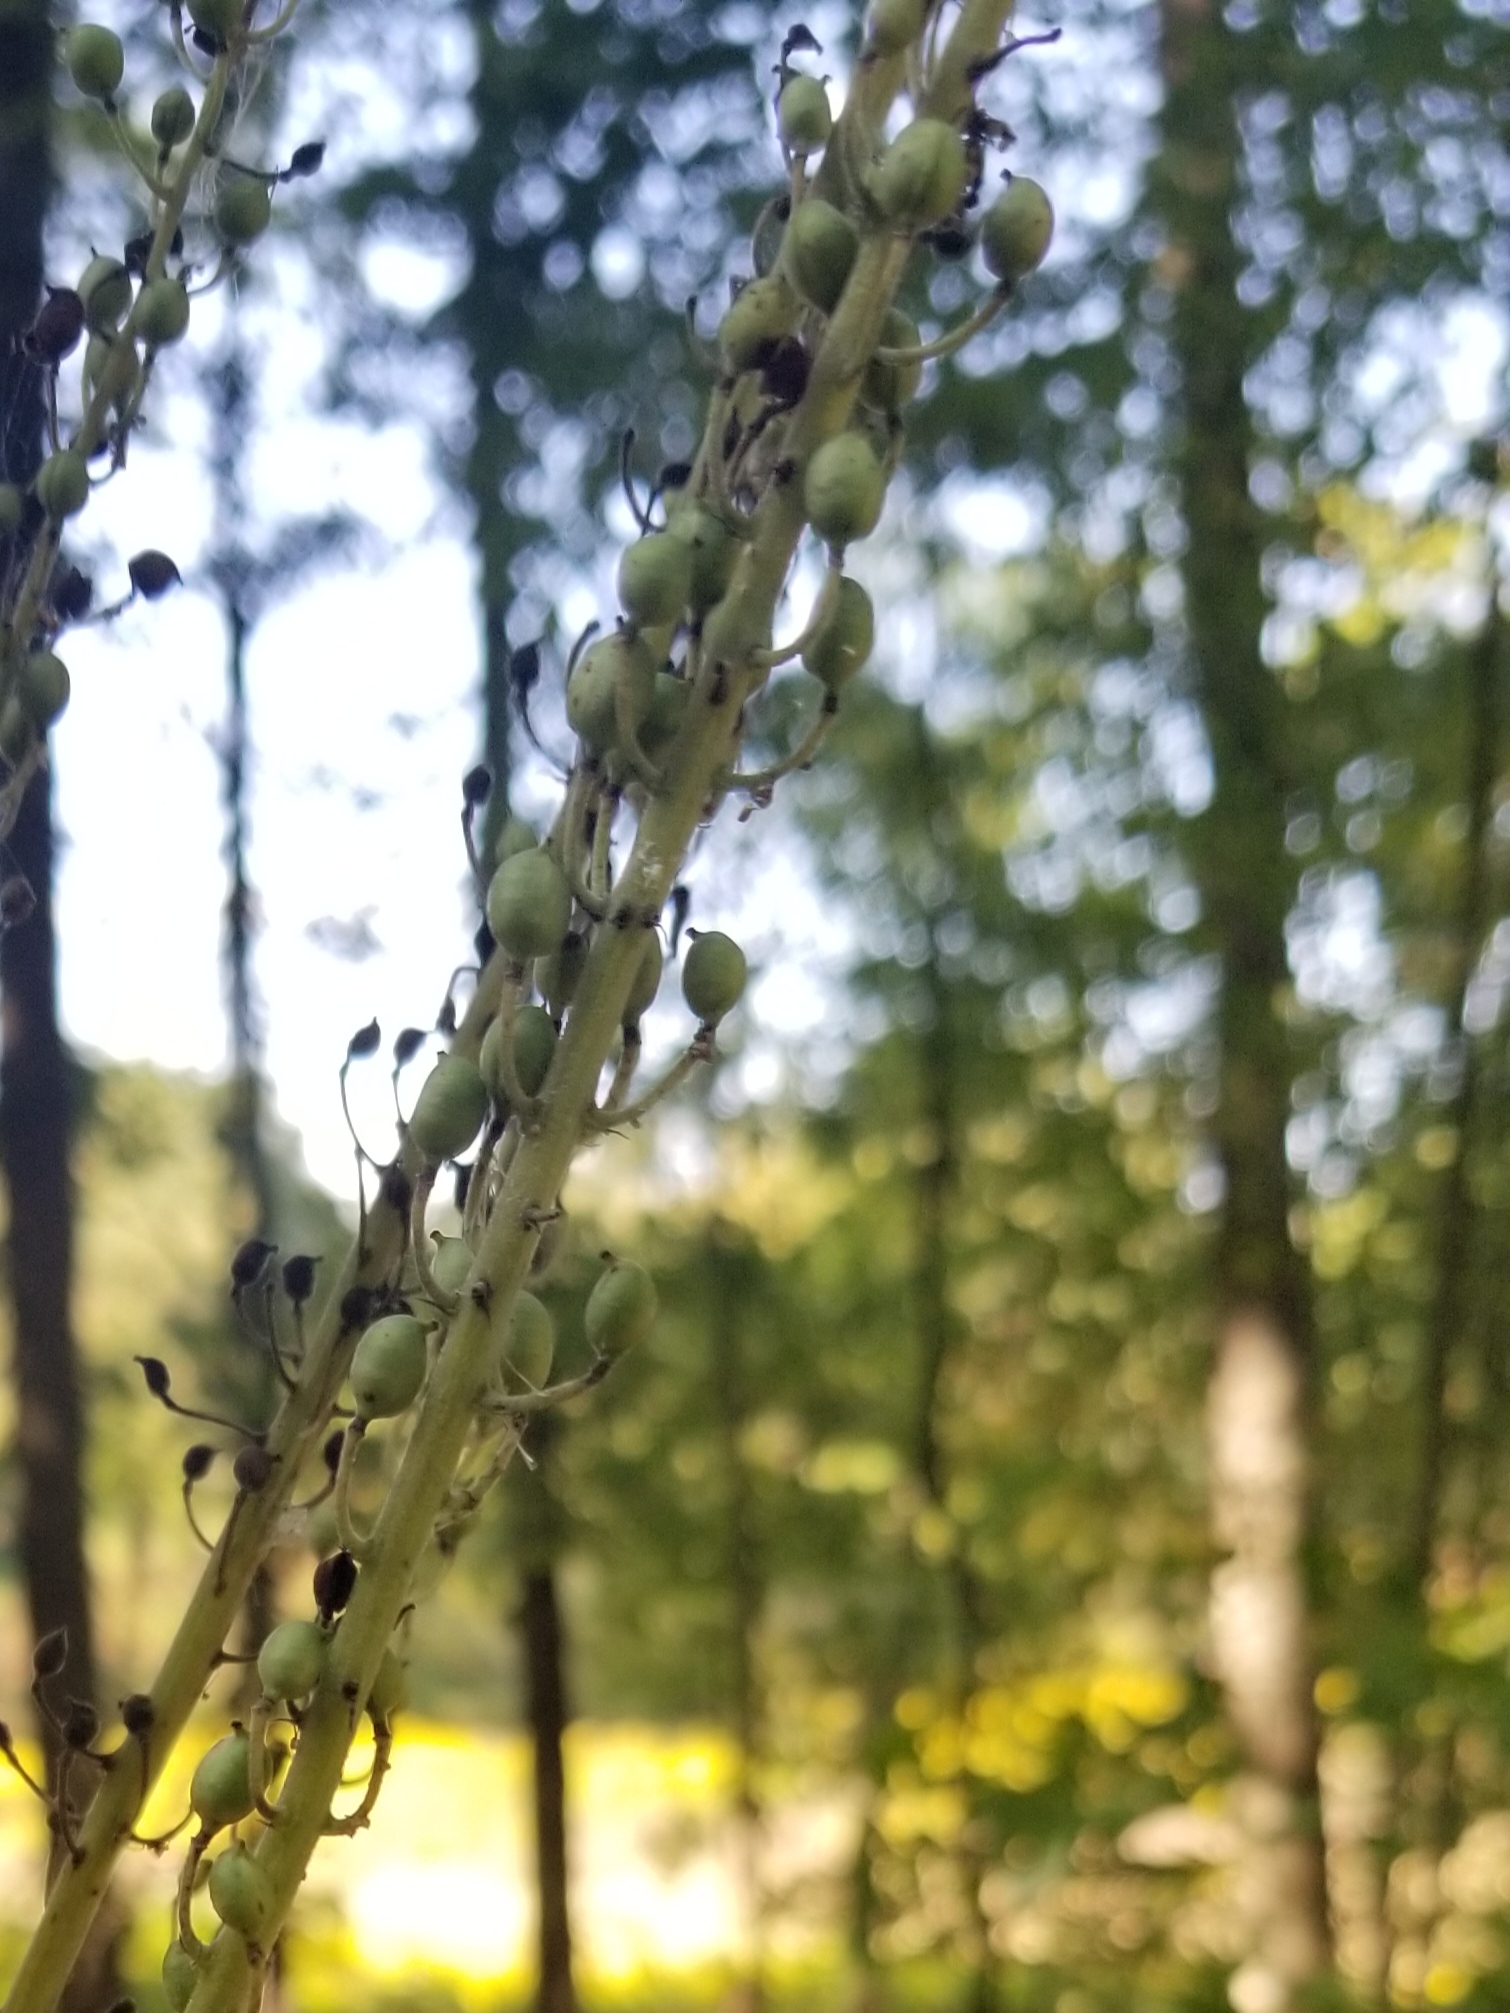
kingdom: Plantae
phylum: Tracheophyta
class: Magnoliopsida
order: Ranunculales
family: Ranunculaceae
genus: Actaea
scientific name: Actaea racemosa
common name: Black cohosh
